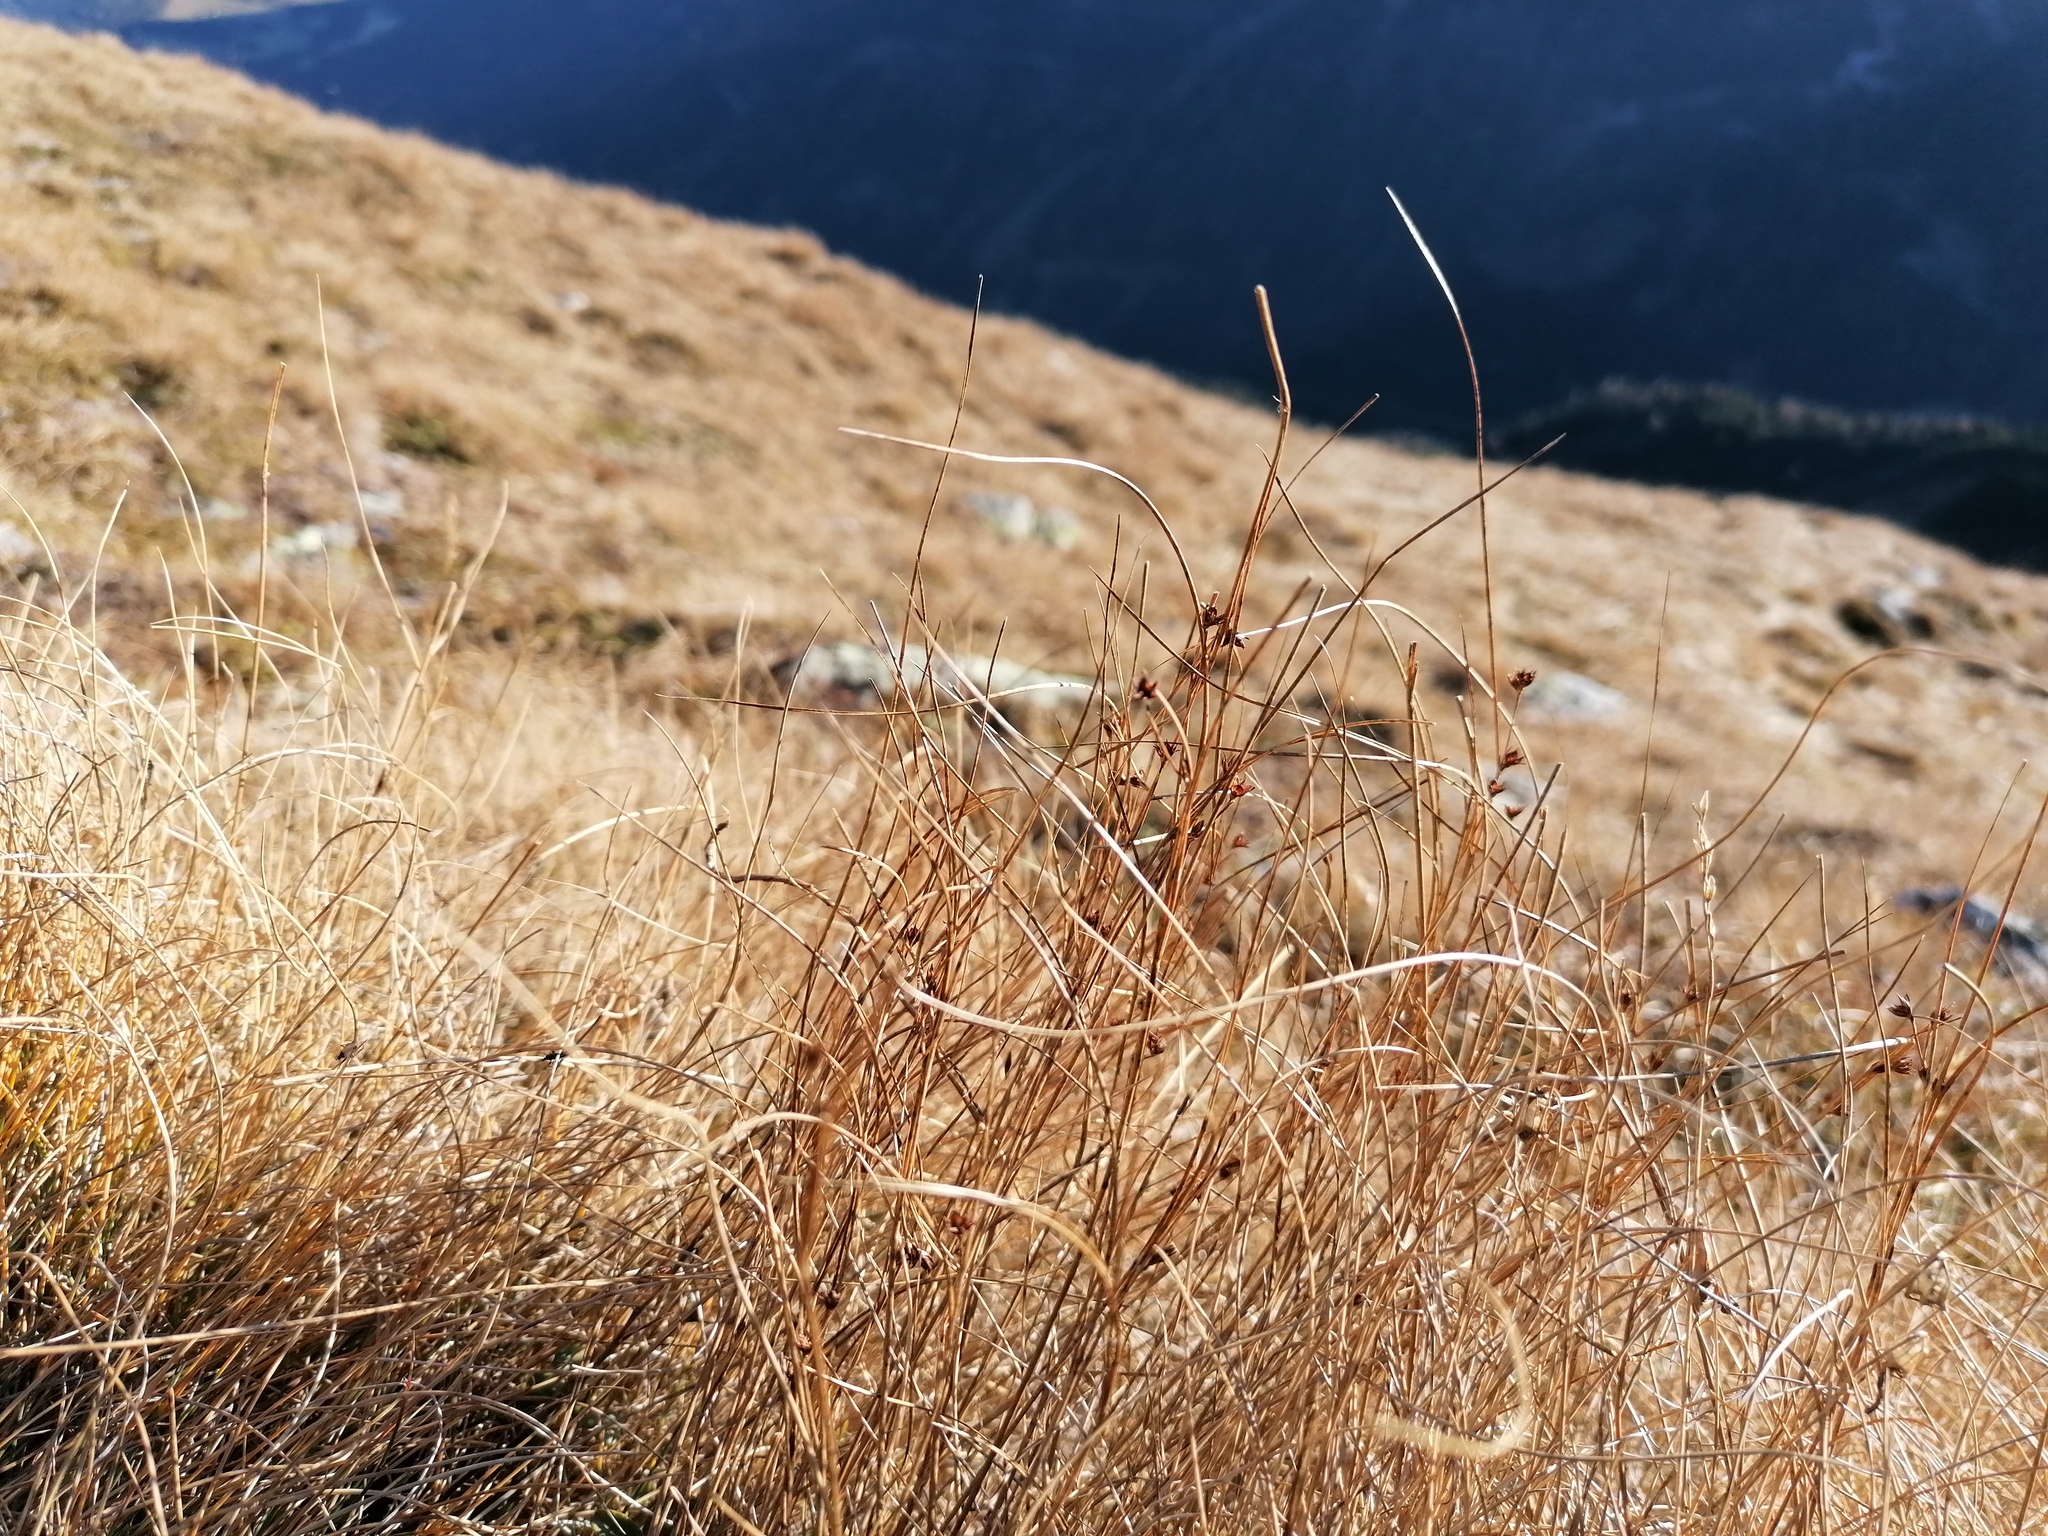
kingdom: Plantae
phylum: Tracheophyta
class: Liliopsida
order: Poales
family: Juncaceae
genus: Oreojuncus
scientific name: Oreojuncus trifidus
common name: Highland rush
